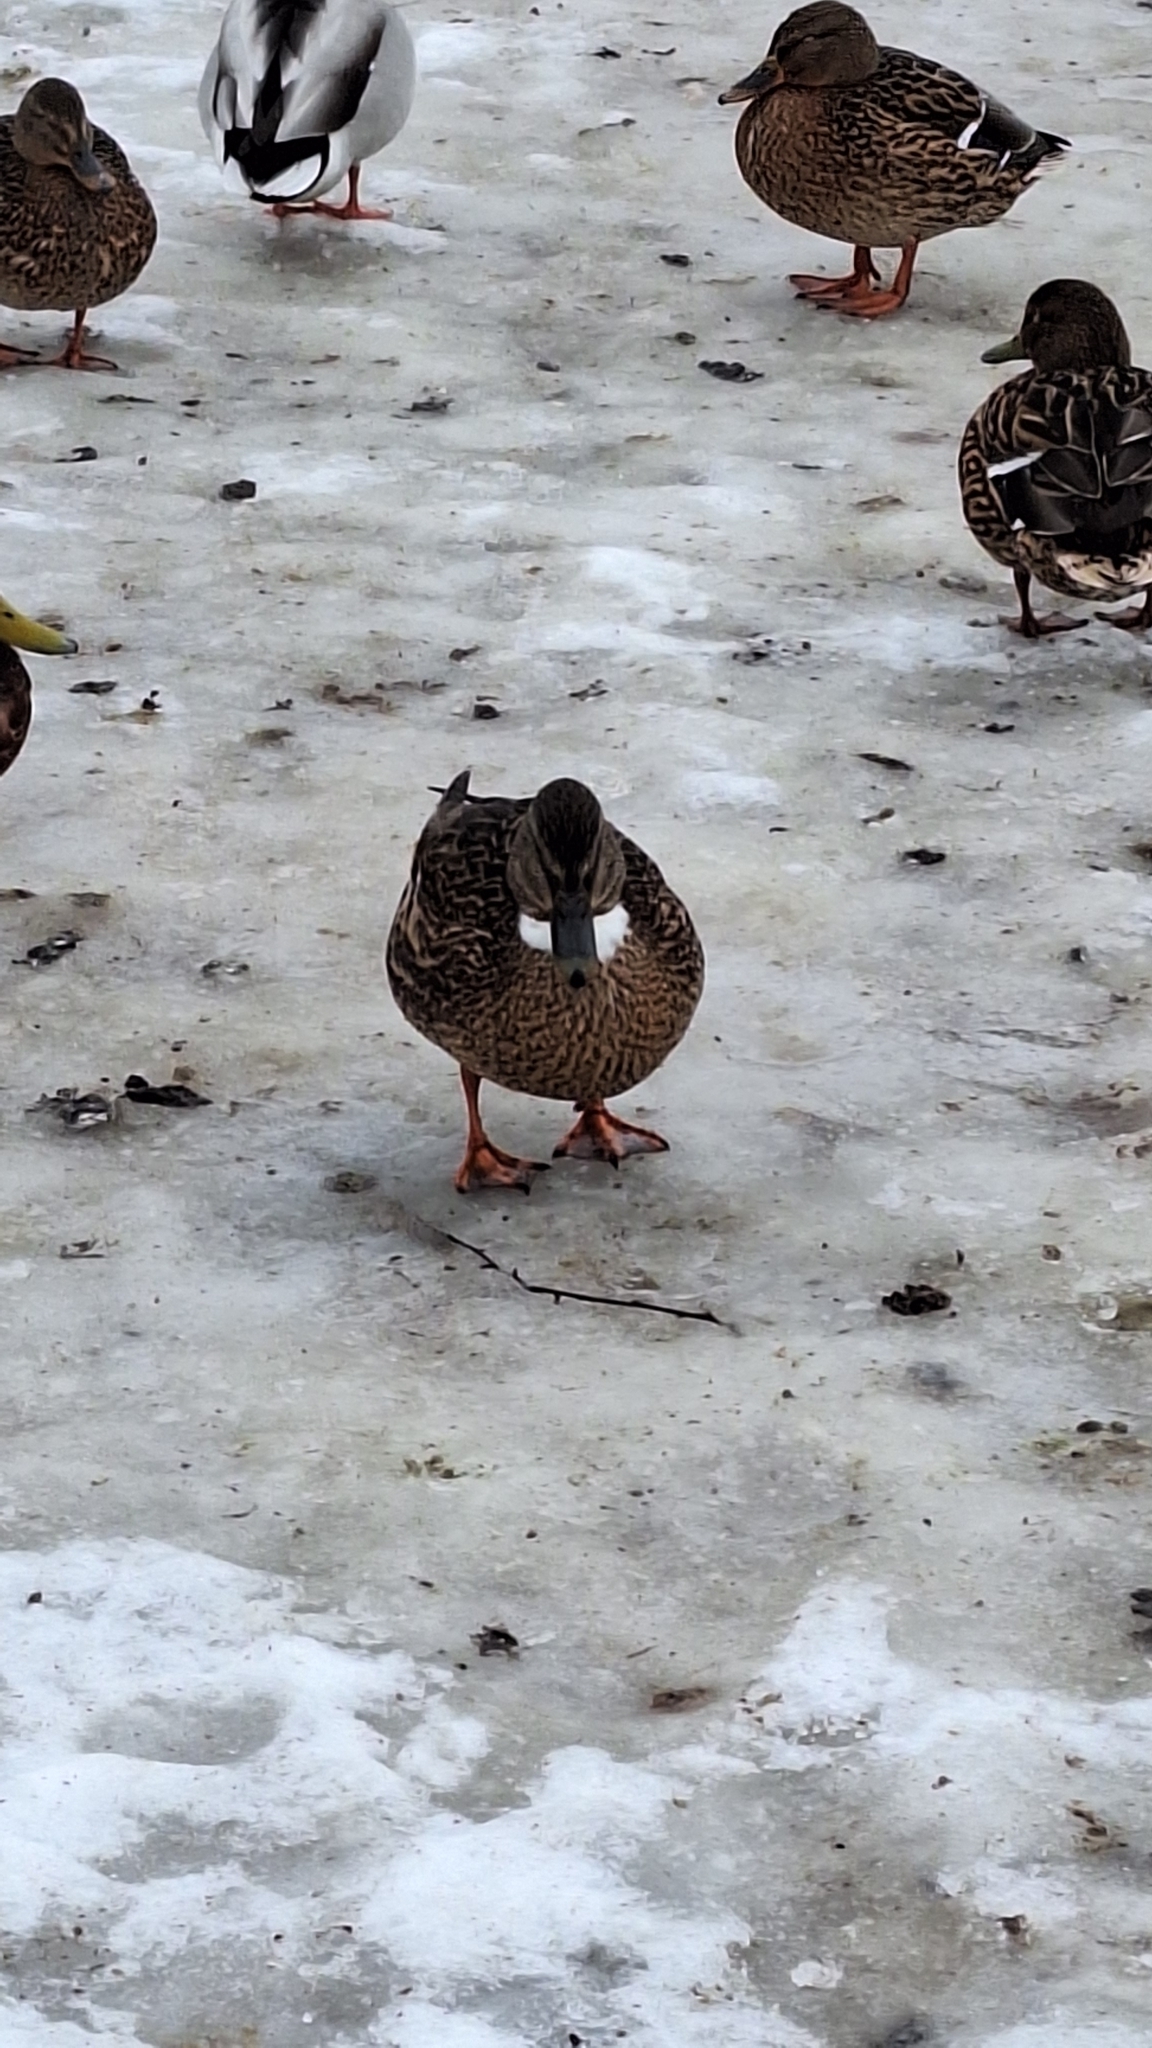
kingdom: Animalia
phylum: Chordata
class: Aves
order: Anseriformes
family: Anatidae
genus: Anas
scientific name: Anas platyrhynchos
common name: Mallard
